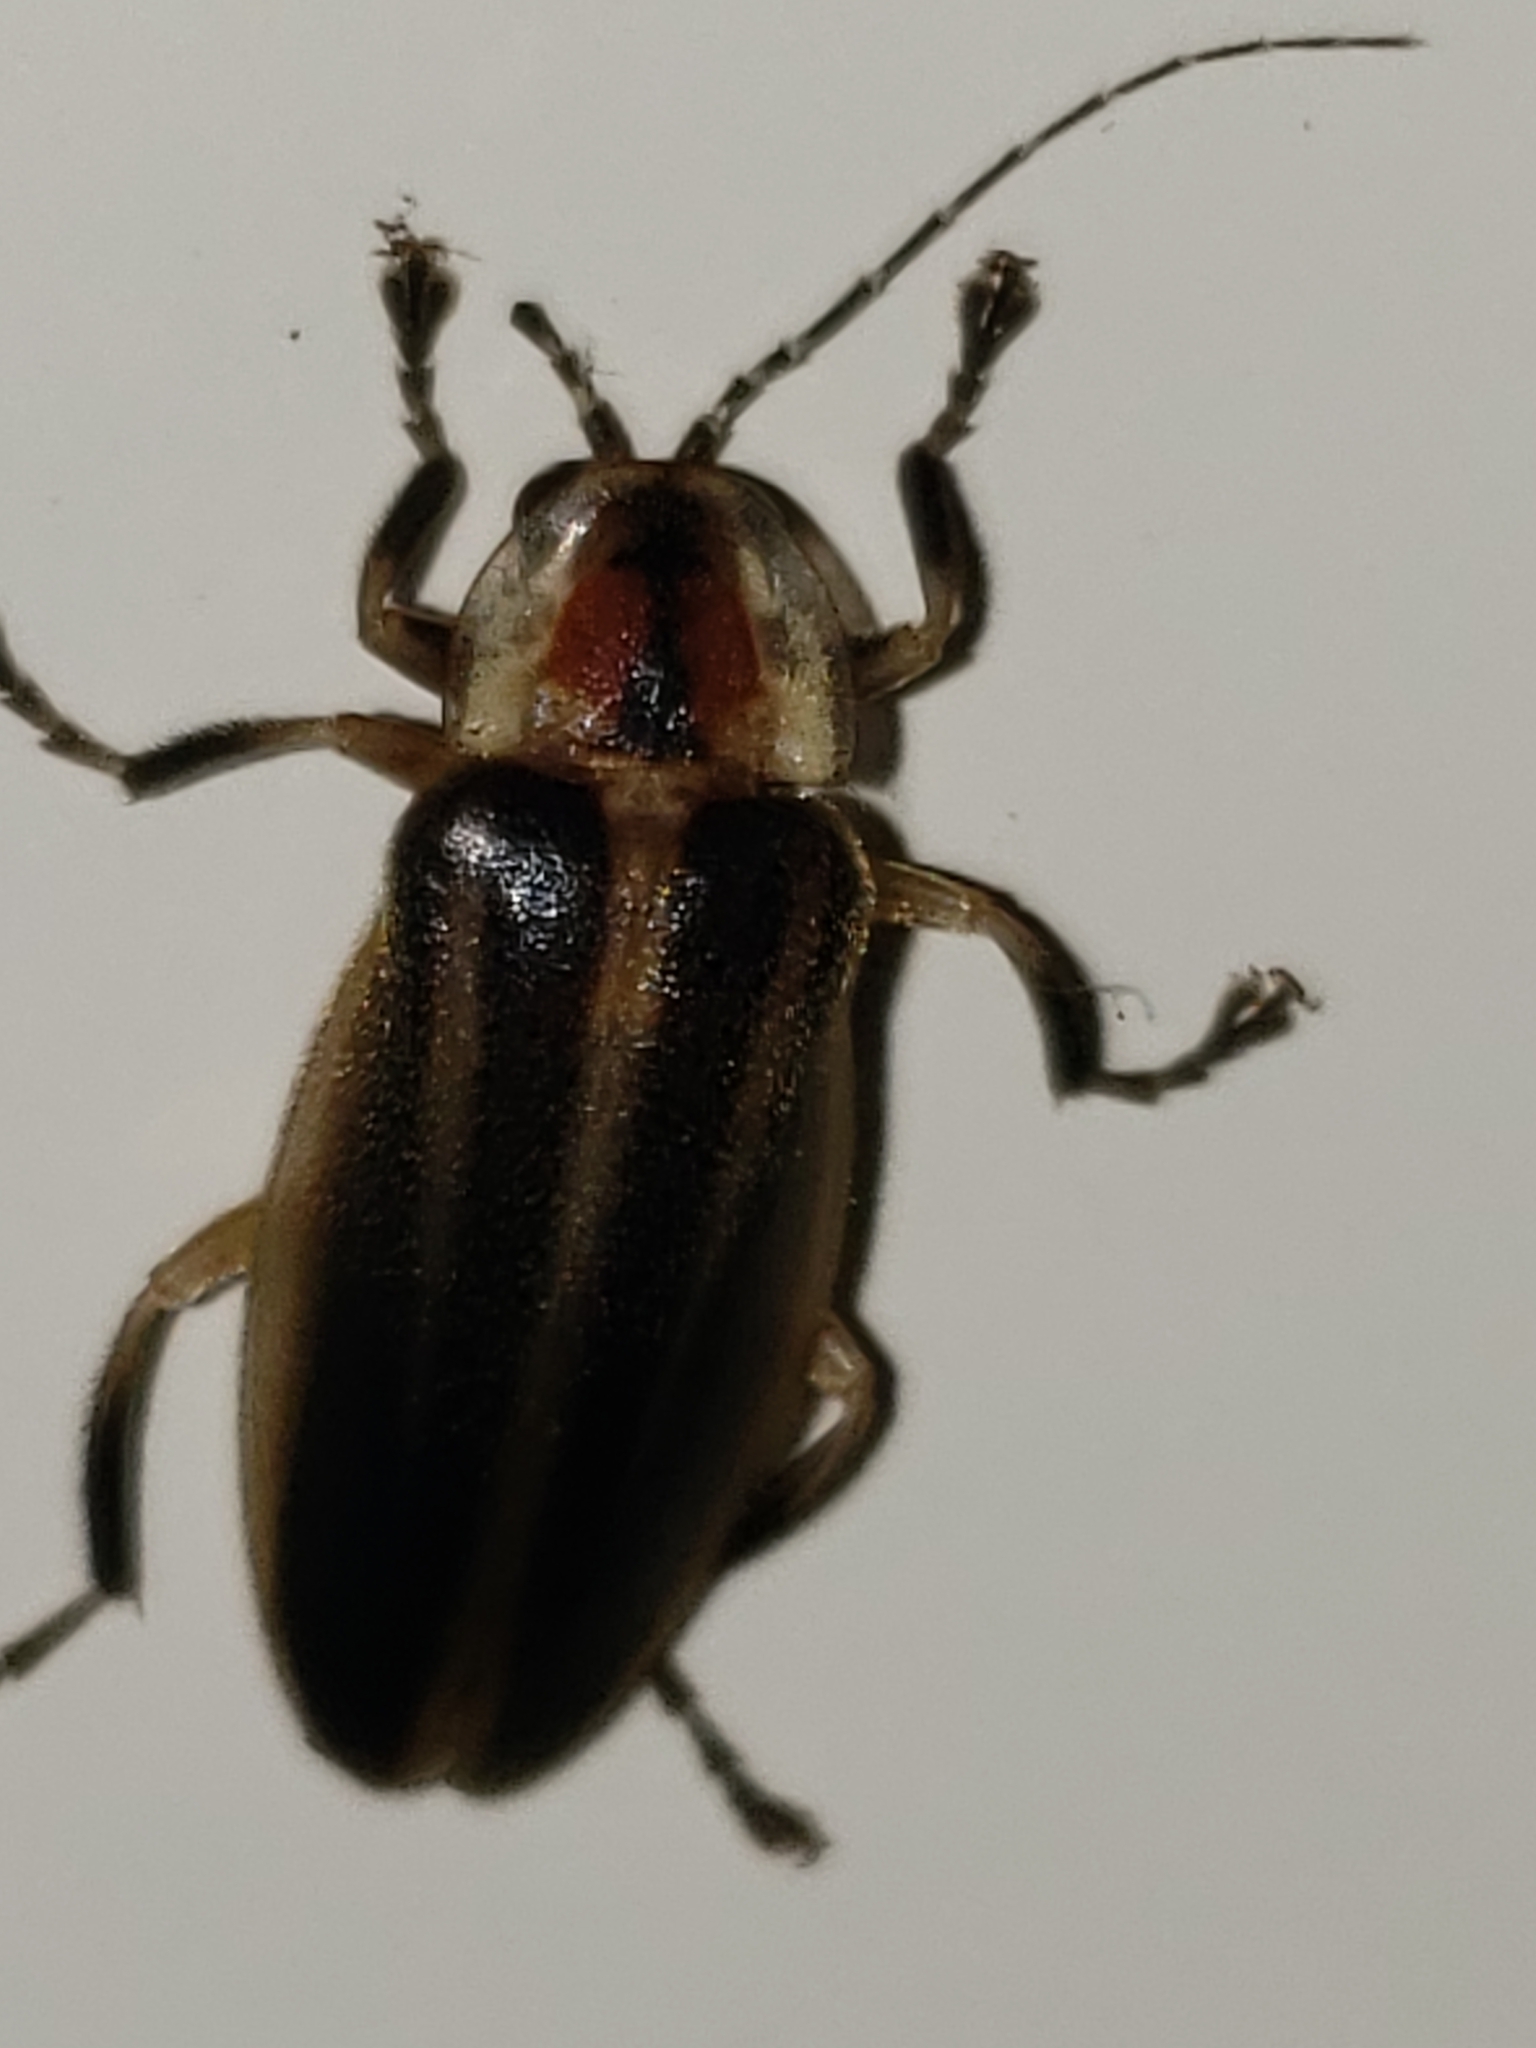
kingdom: Animalia
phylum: Arthropoda
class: Insecta
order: Coleoptera
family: Lampyridae
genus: Photuris
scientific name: Photuris
